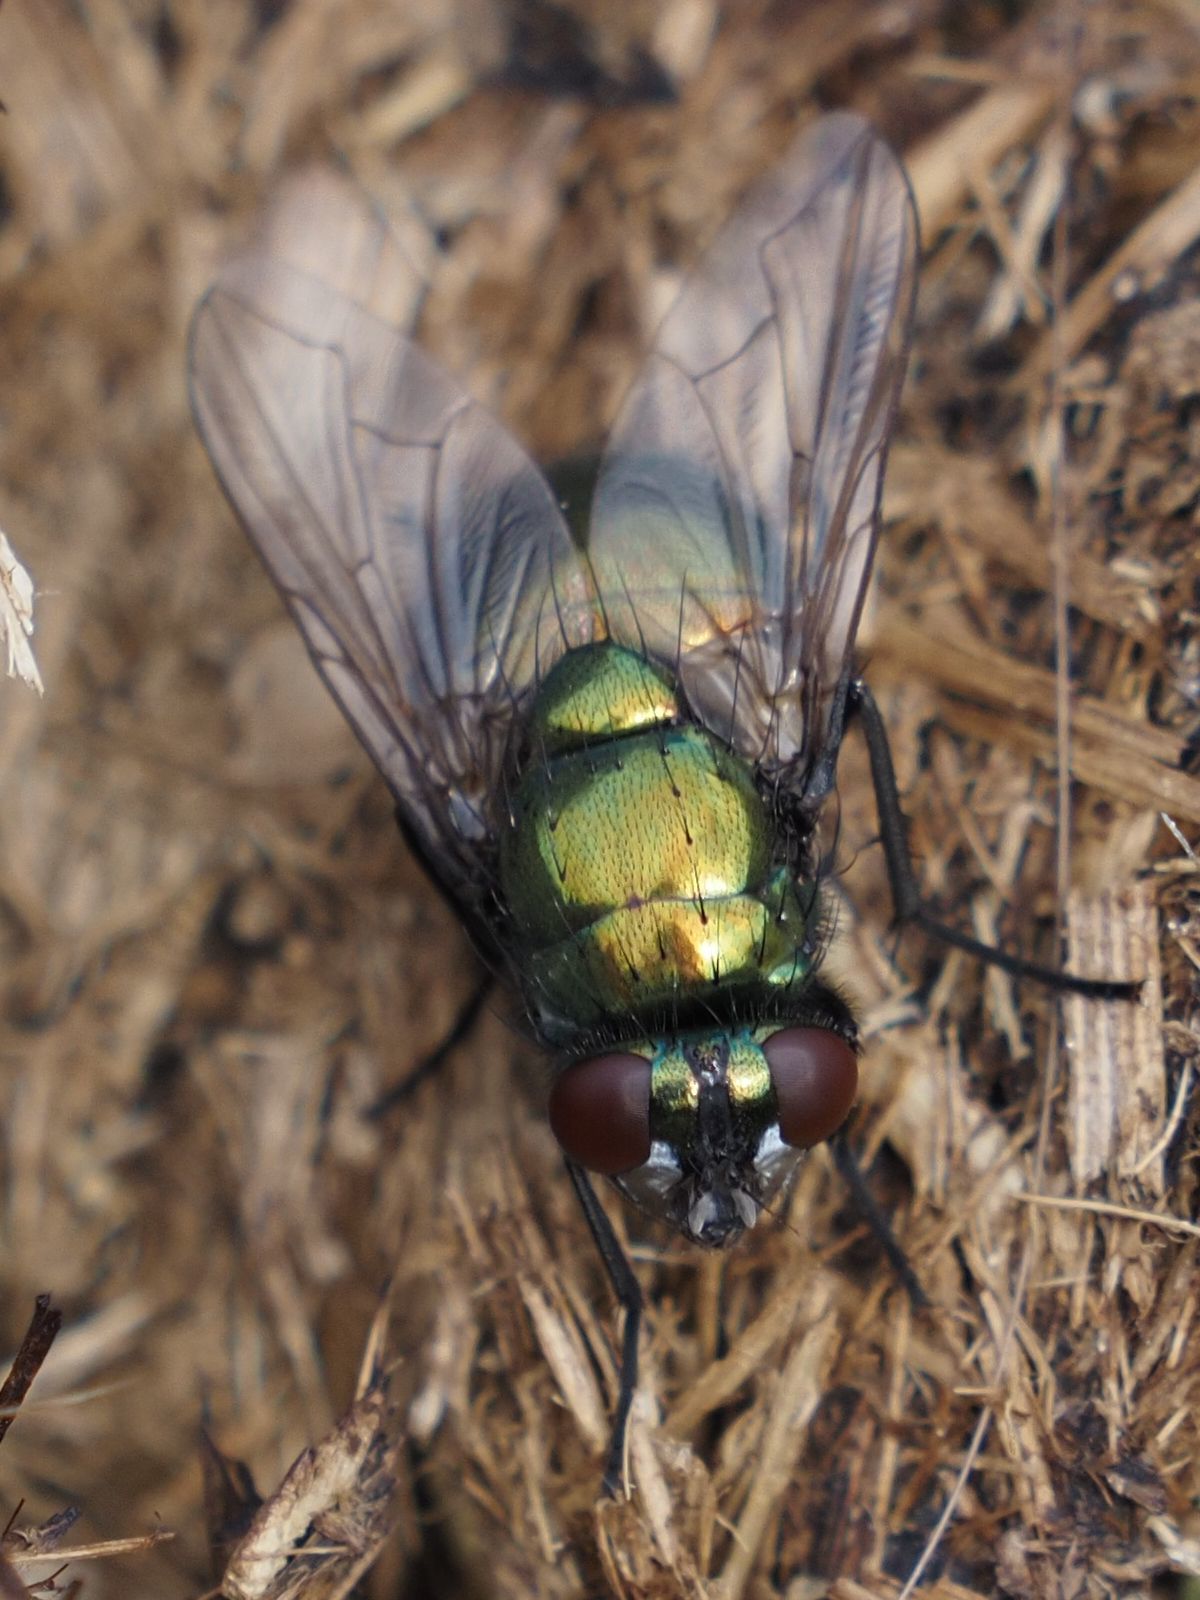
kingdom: Animalia
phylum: Arthropoda
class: Insecta
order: Diptera
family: Muscidae
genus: Neomyia
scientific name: Neomyia cornicina
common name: House fly
